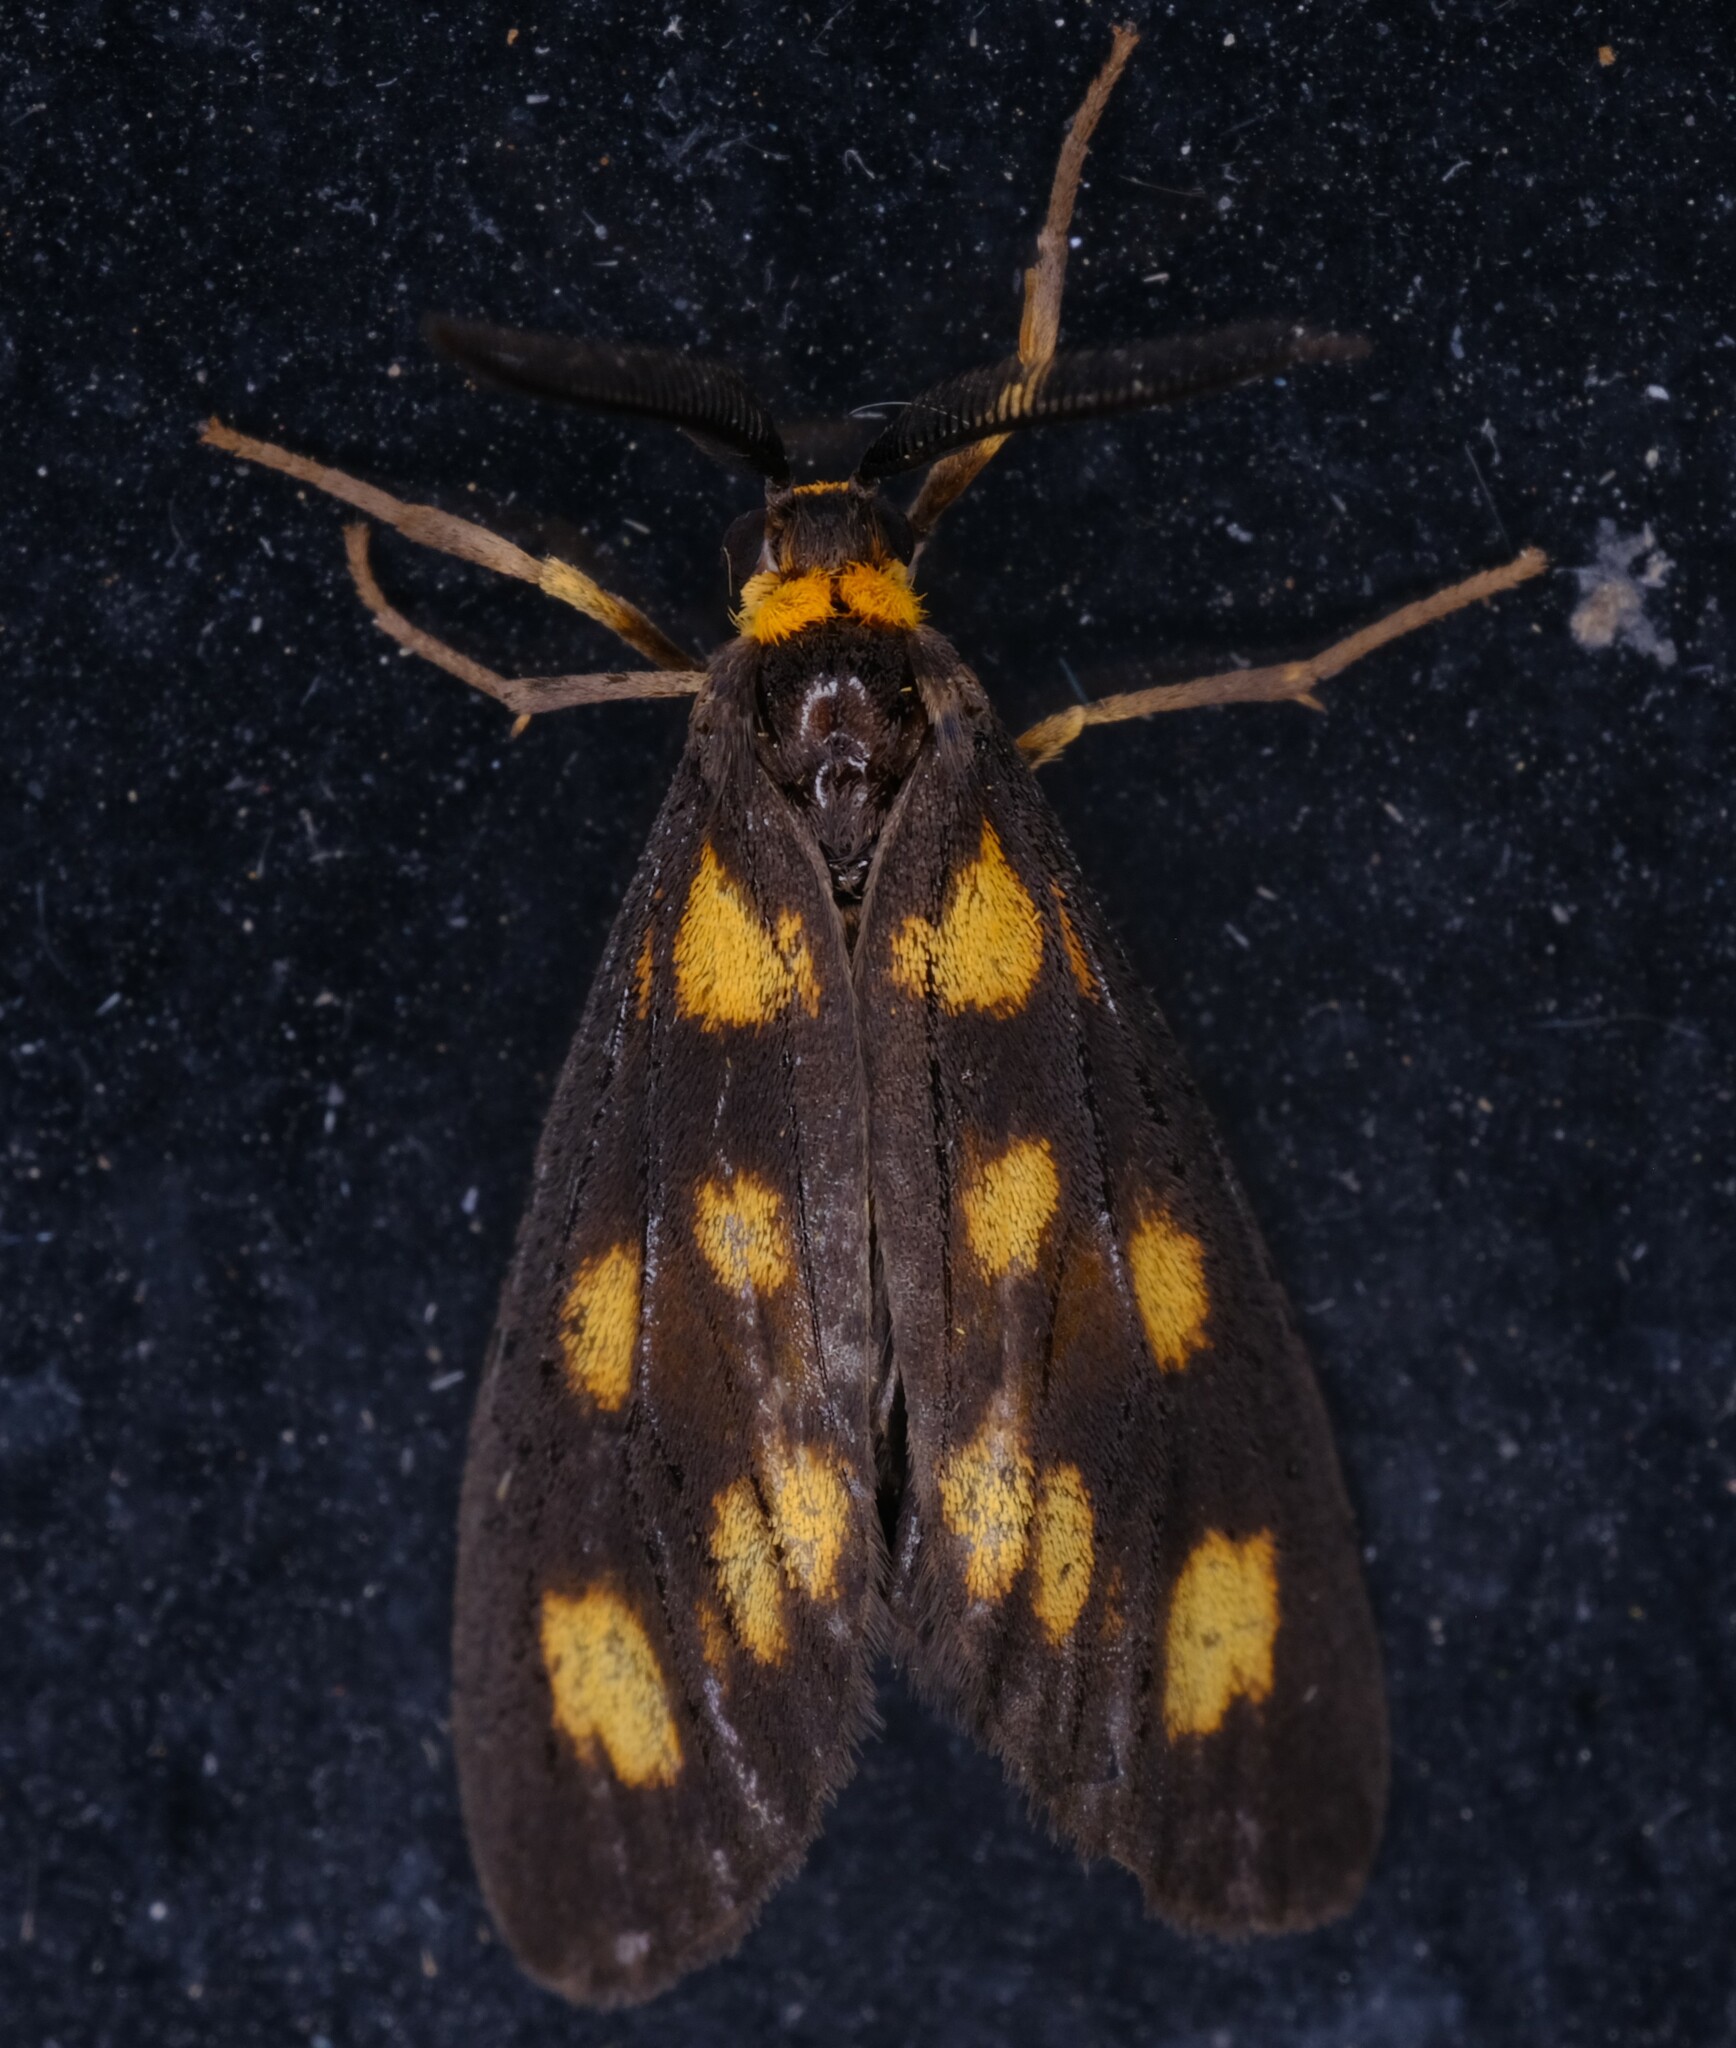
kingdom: Animalia
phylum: Arthropoda
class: Insecta
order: Lepidoptera
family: Erebidae
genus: Asura
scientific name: Asura cervicalis
